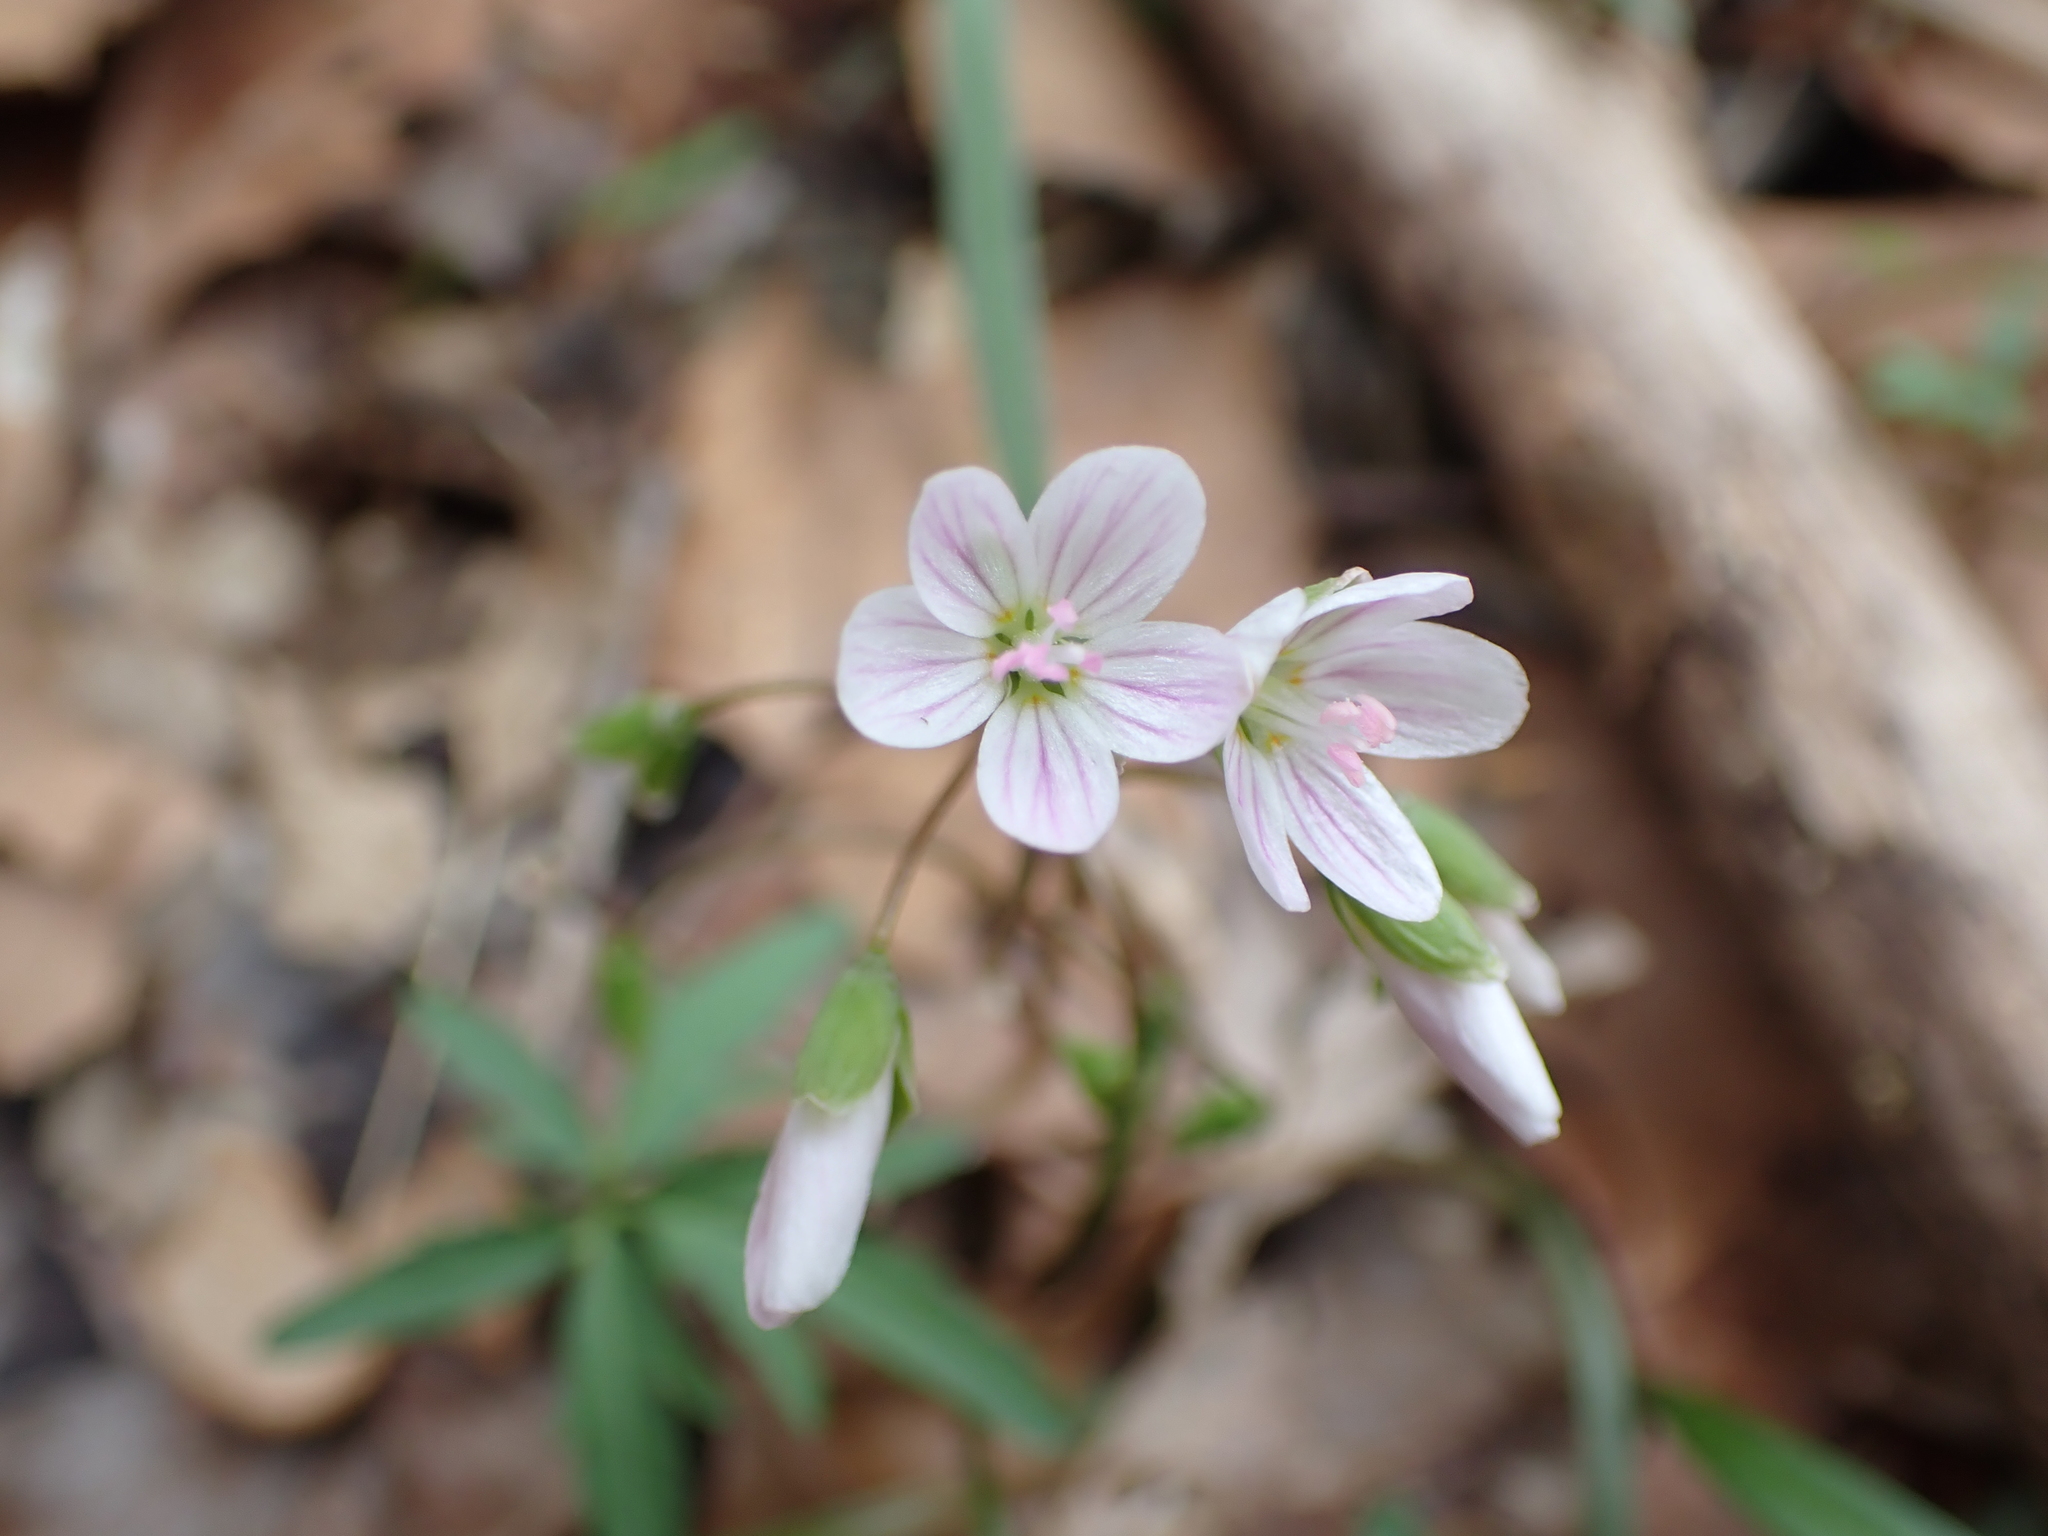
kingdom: Plantae
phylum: Tracheophyta
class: Magnoliopsida
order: Caryophyllales
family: Montiaceae
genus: Claytonia
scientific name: Claytonia virginica
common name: Virginia springbeauty
